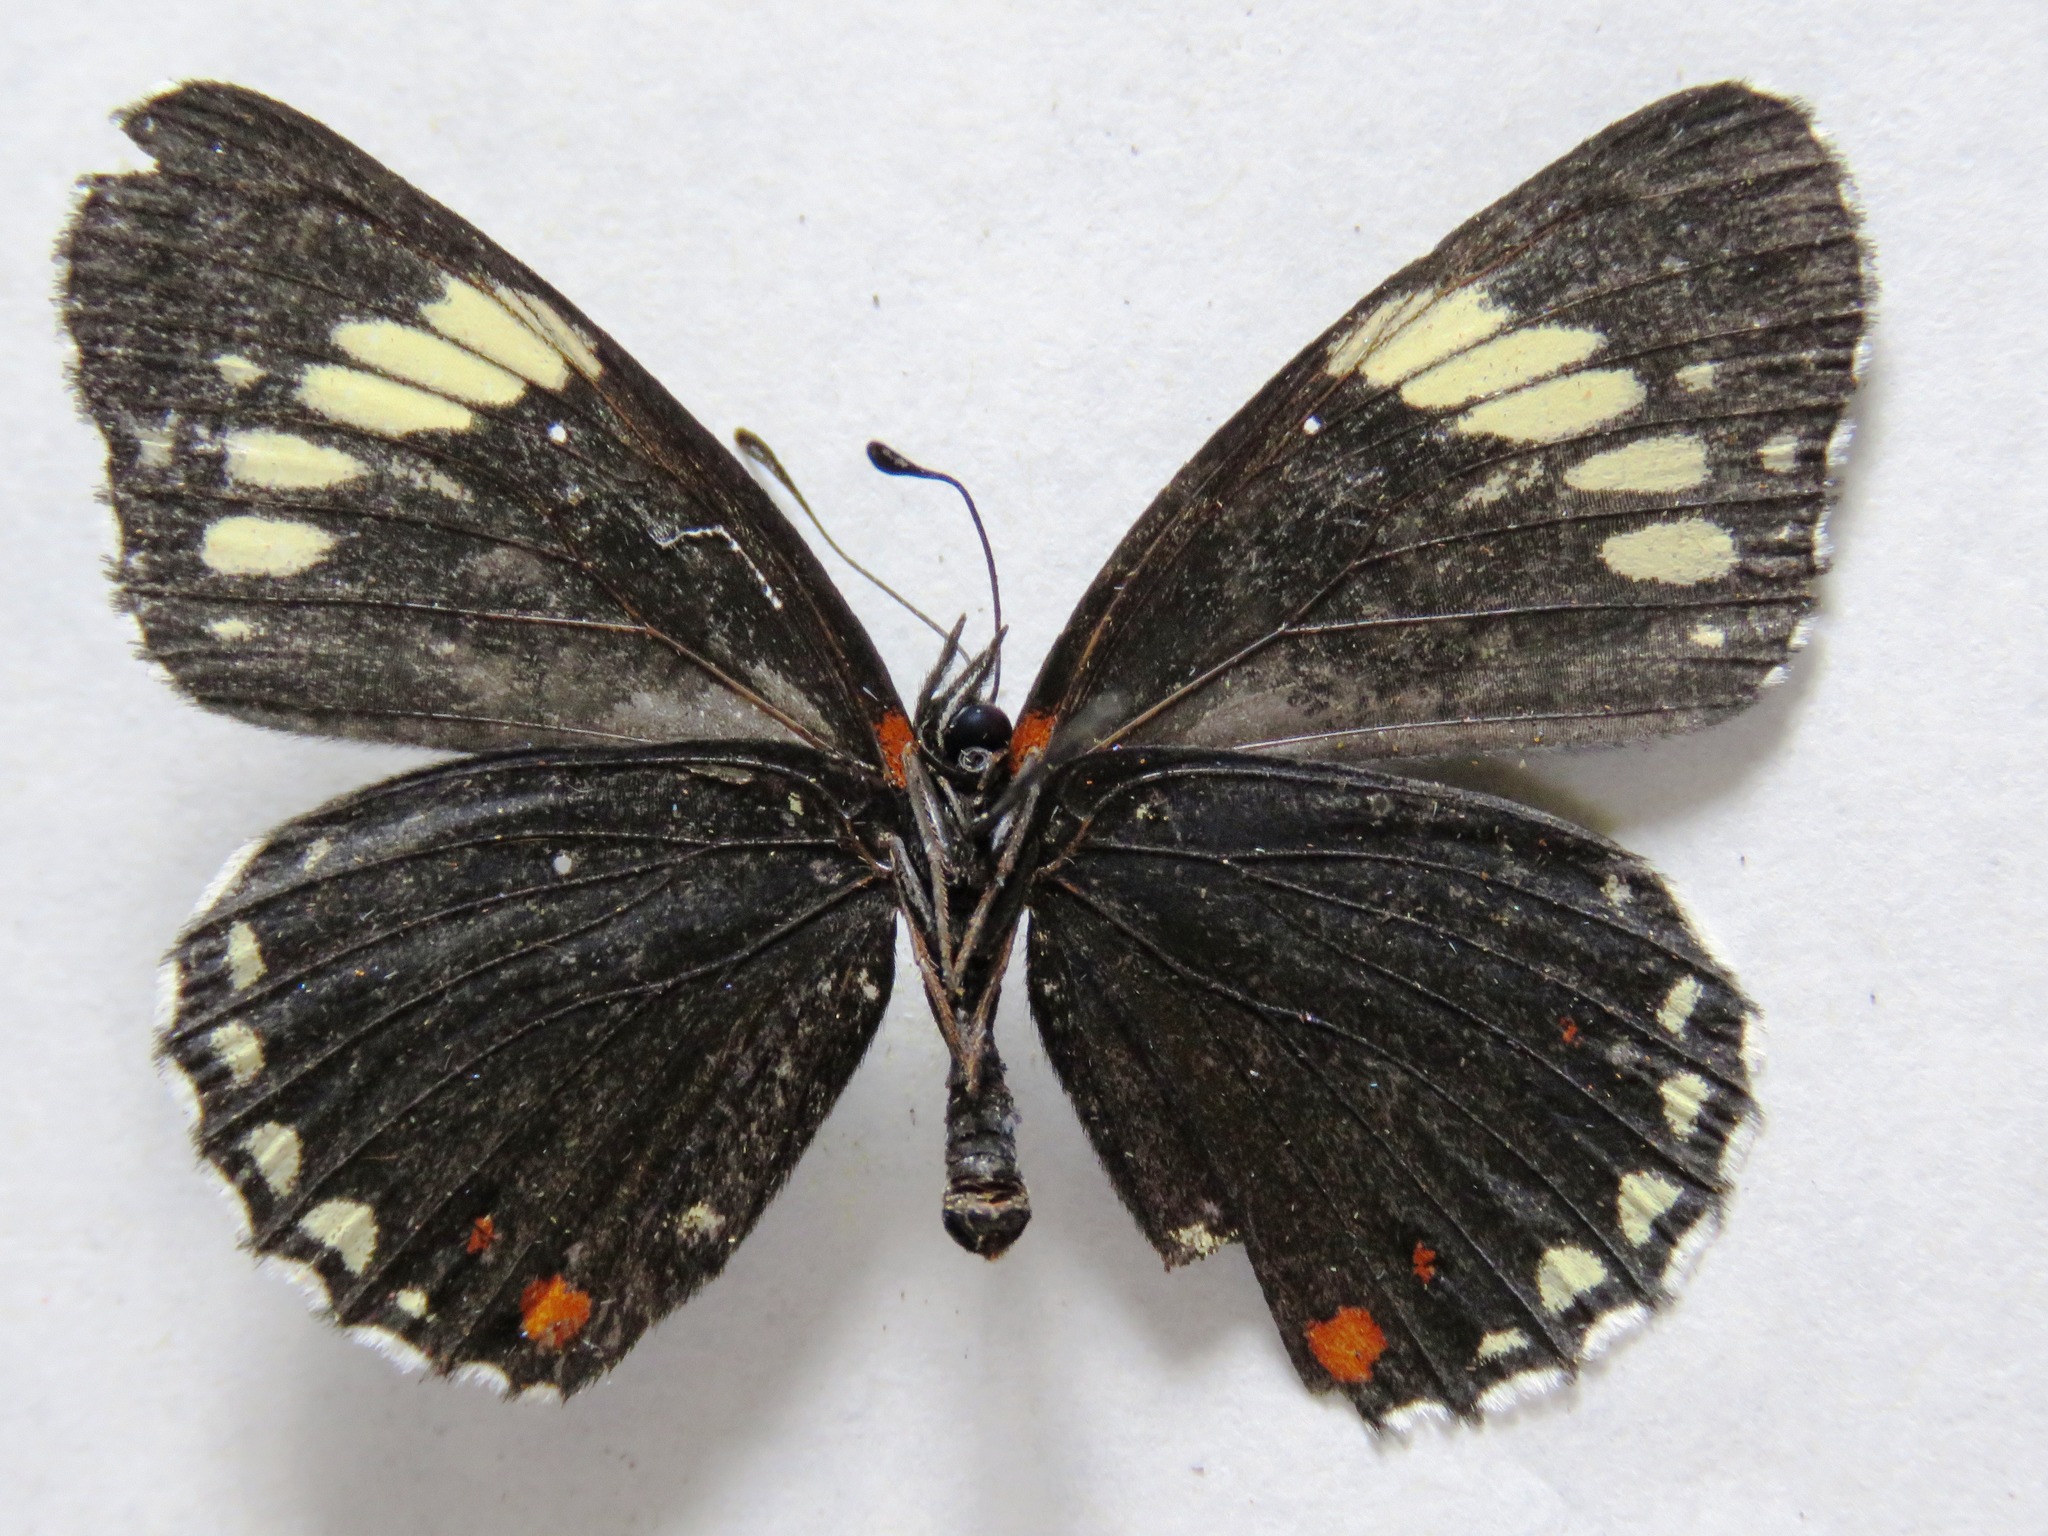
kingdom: Animalia
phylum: Arthropoda
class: Insecta
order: Lepidoptera
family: Nymphalidae
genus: Chlosyne
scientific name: Chlosyne melanarge
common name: Cream-banded checkerspot
